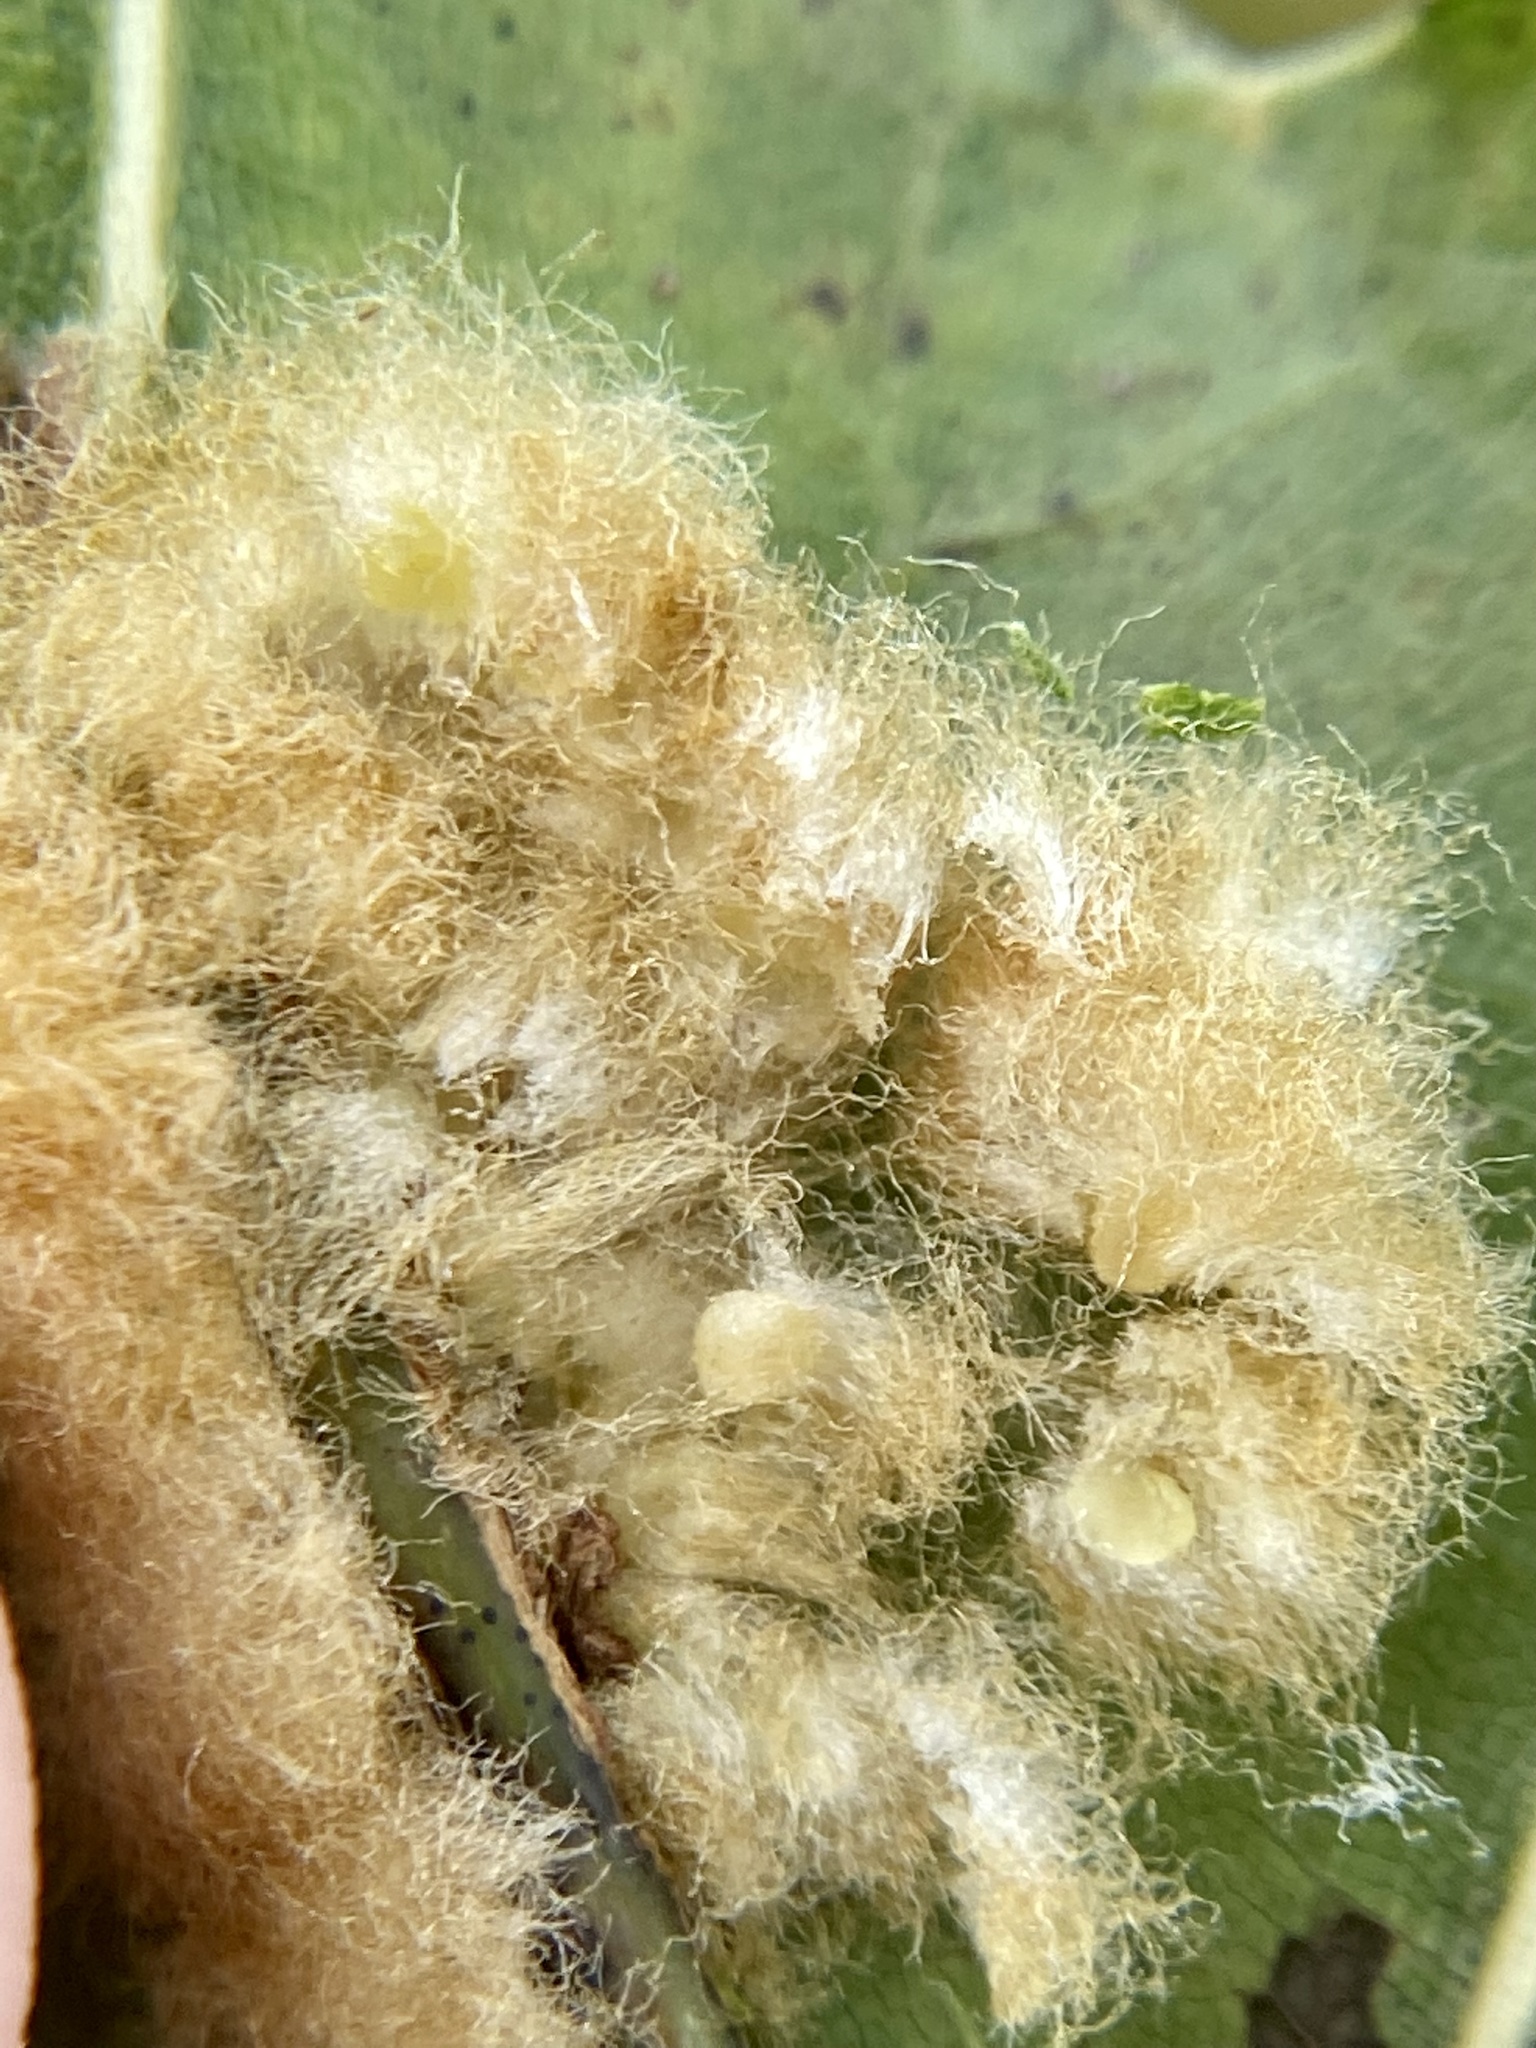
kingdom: Animalia
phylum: Arthropoda
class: Insecta
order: Hymenoptera
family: Cynipidae
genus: Callirhytis
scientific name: Callirhytis
